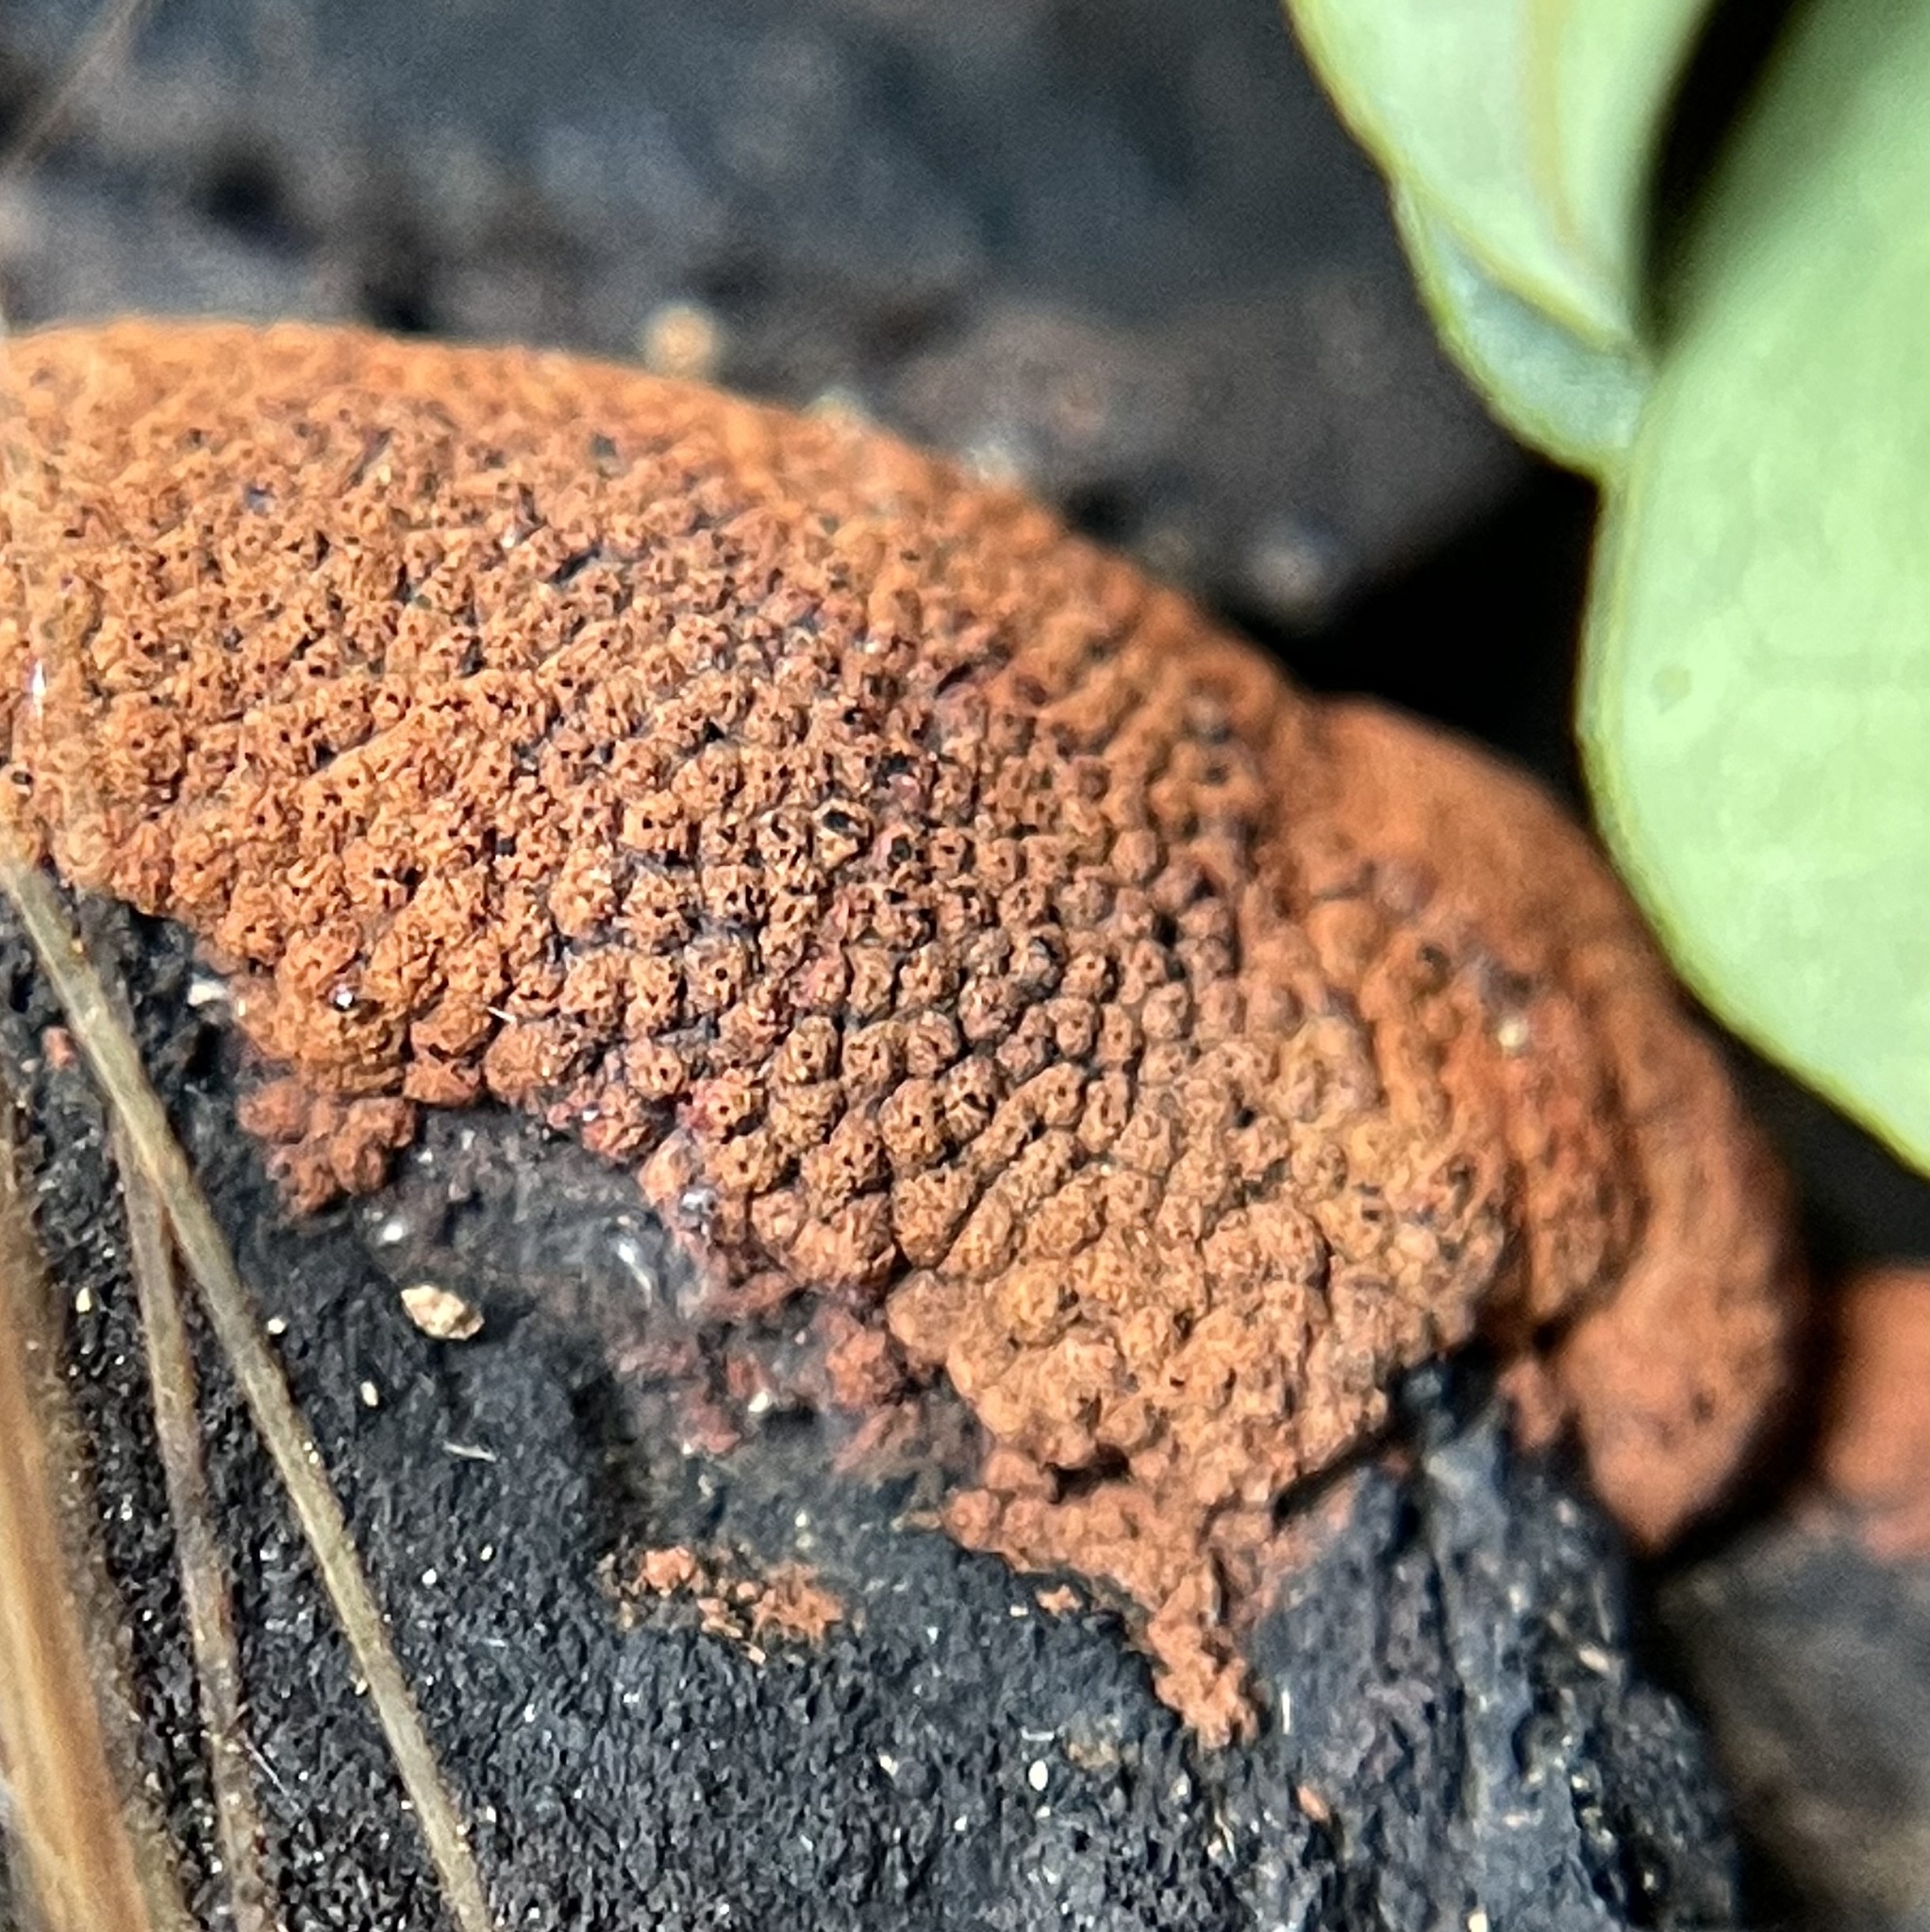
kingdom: Fungi
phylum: Ascomycota
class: Sordariomycetes
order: Xylariales
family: Hypoxylaceae
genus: Hypoxylon
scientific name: Hypoxylon rubiginosum
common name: Rusty woodwart
